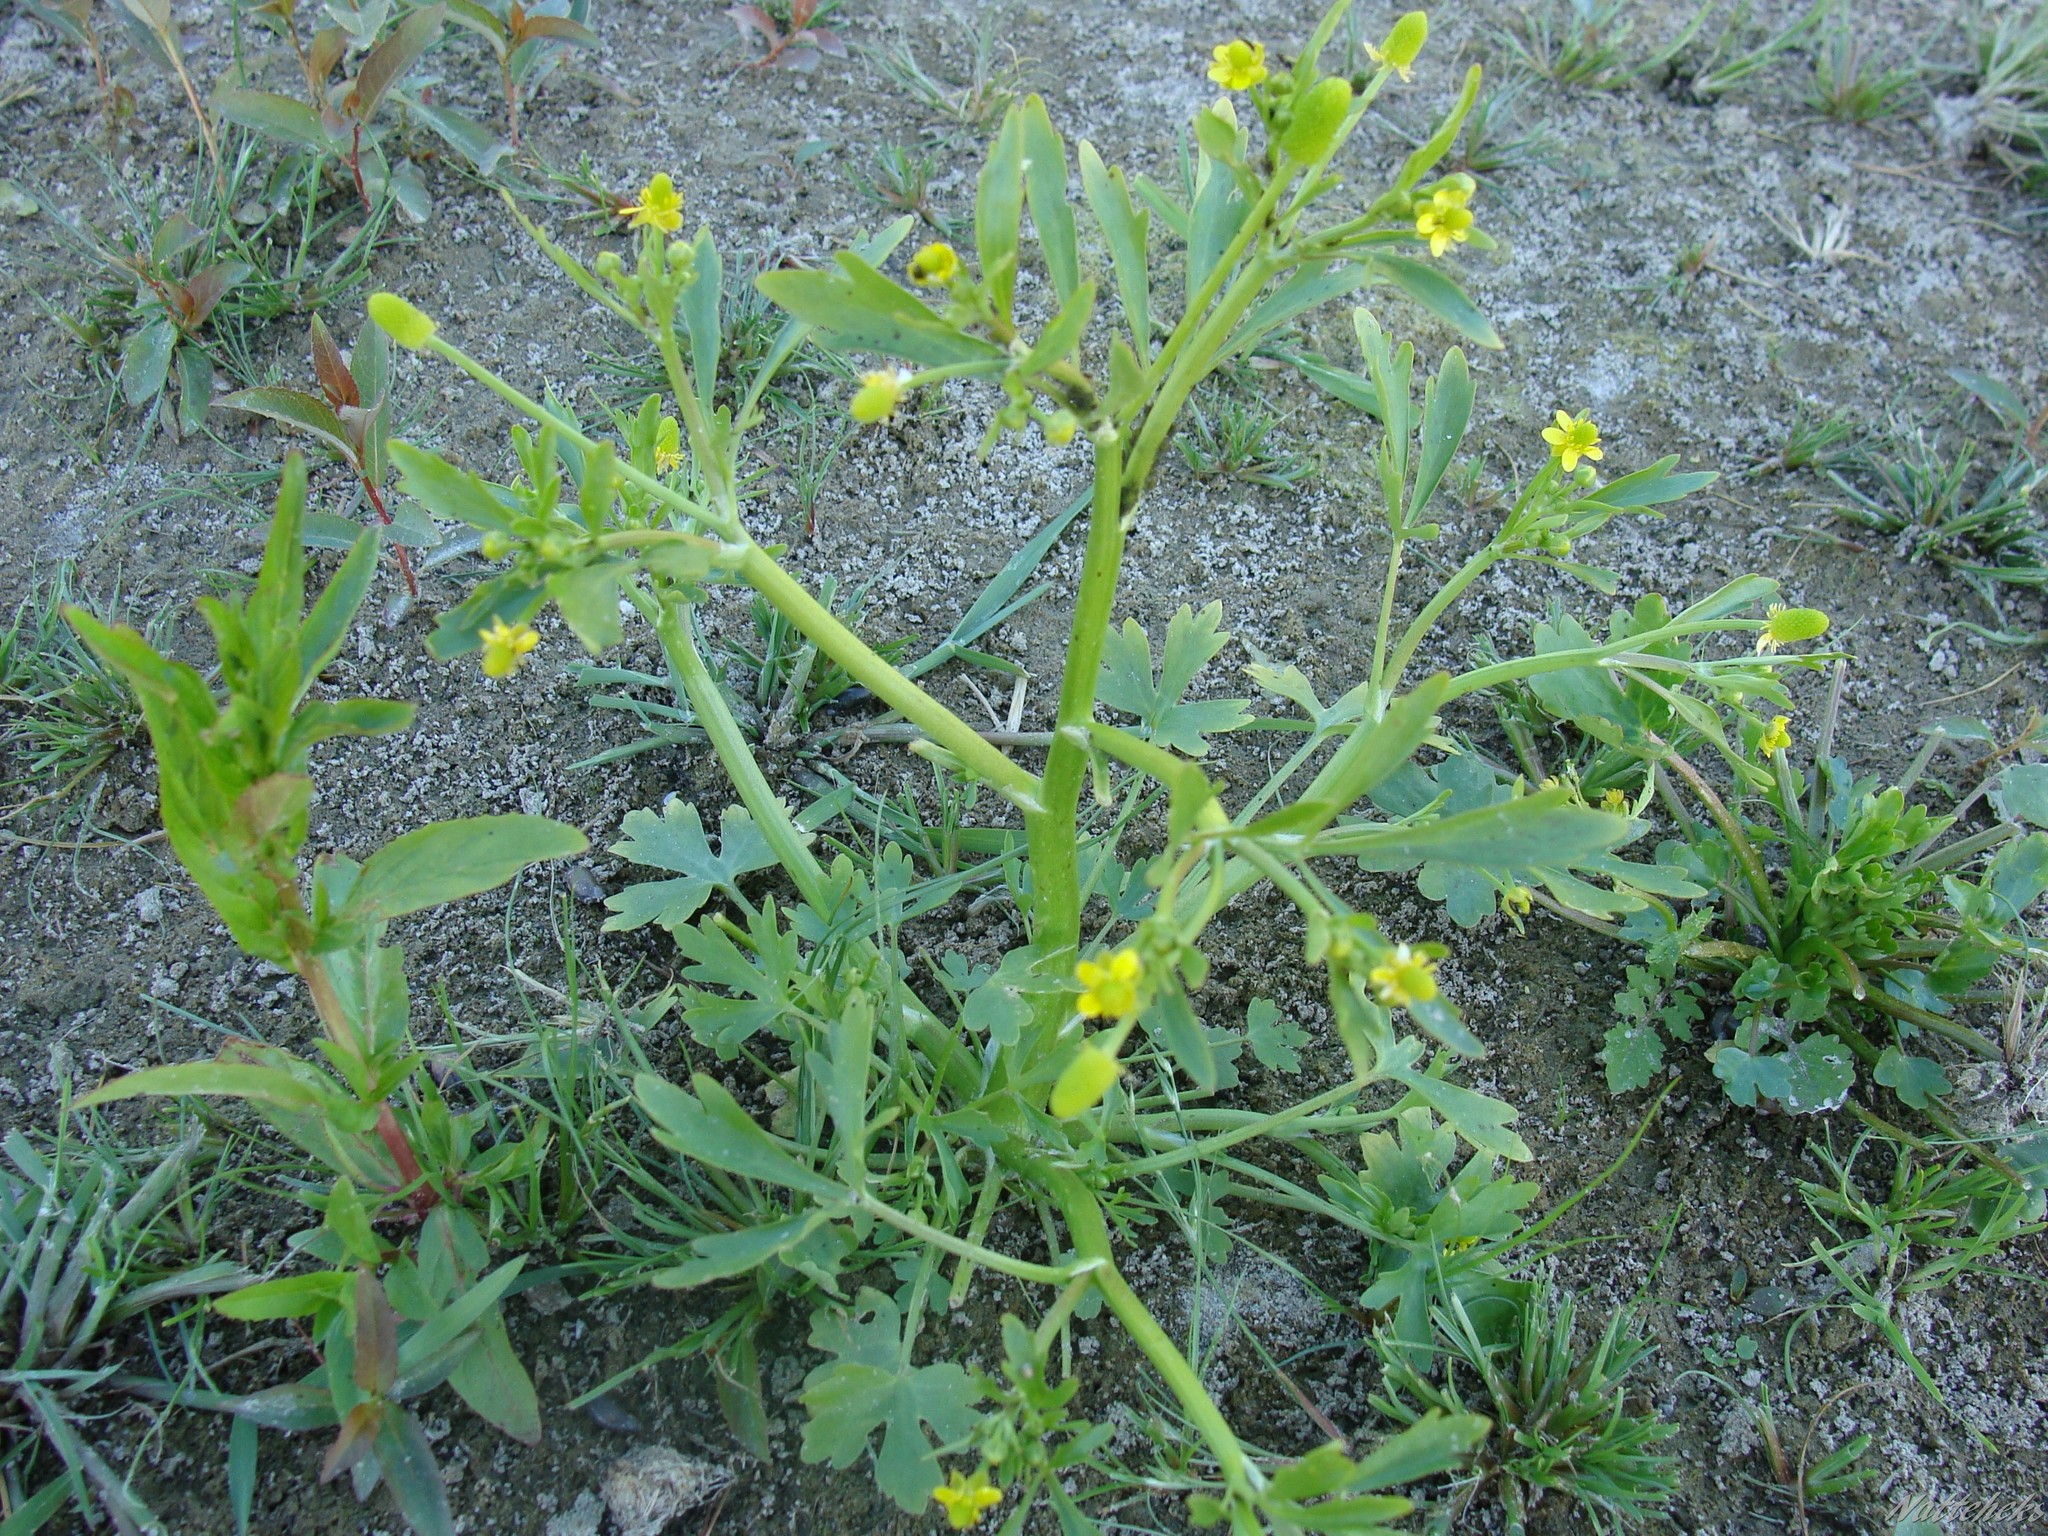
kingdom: Plantae
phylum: Tracheophyta
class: Magnoliopsida
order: Ranunculales
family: Ranunculaceae
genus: Ranunculus
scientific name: Ranunculus sceleratus
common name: Celery-leaved buttercup
